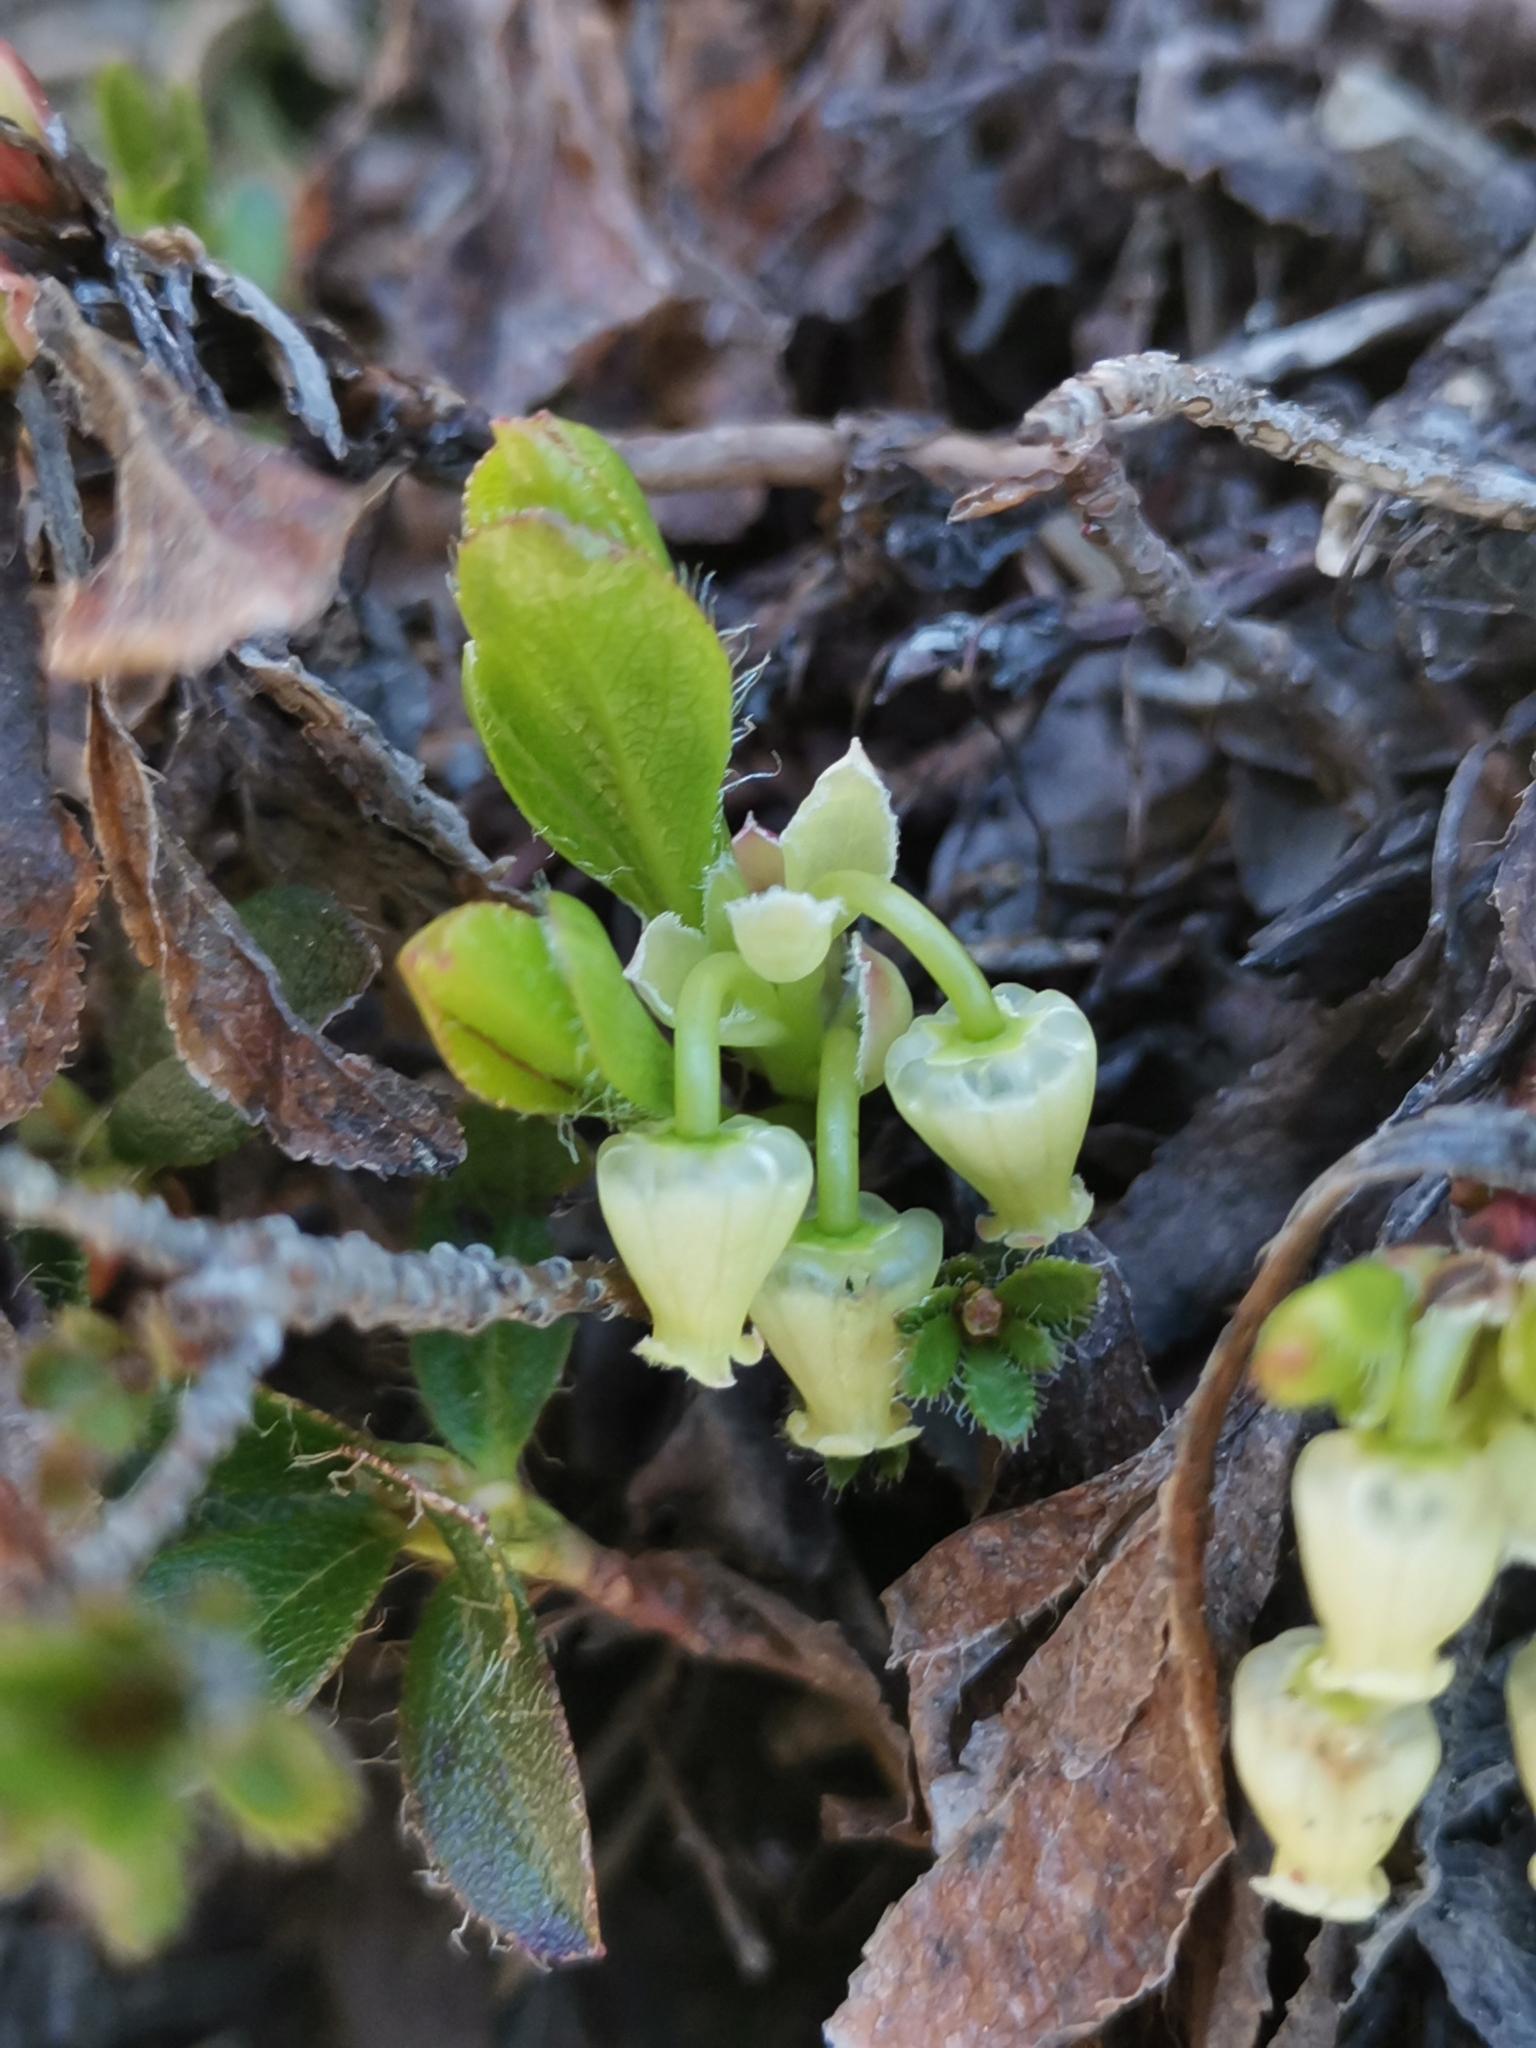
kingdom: Plantae
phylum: Tracheophyta
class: Magnoliopsida
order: Ericales
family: Ericaceae
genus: Arctostaphylos
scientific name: Arctostaphylos alpinus
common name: Alpine bearberry
